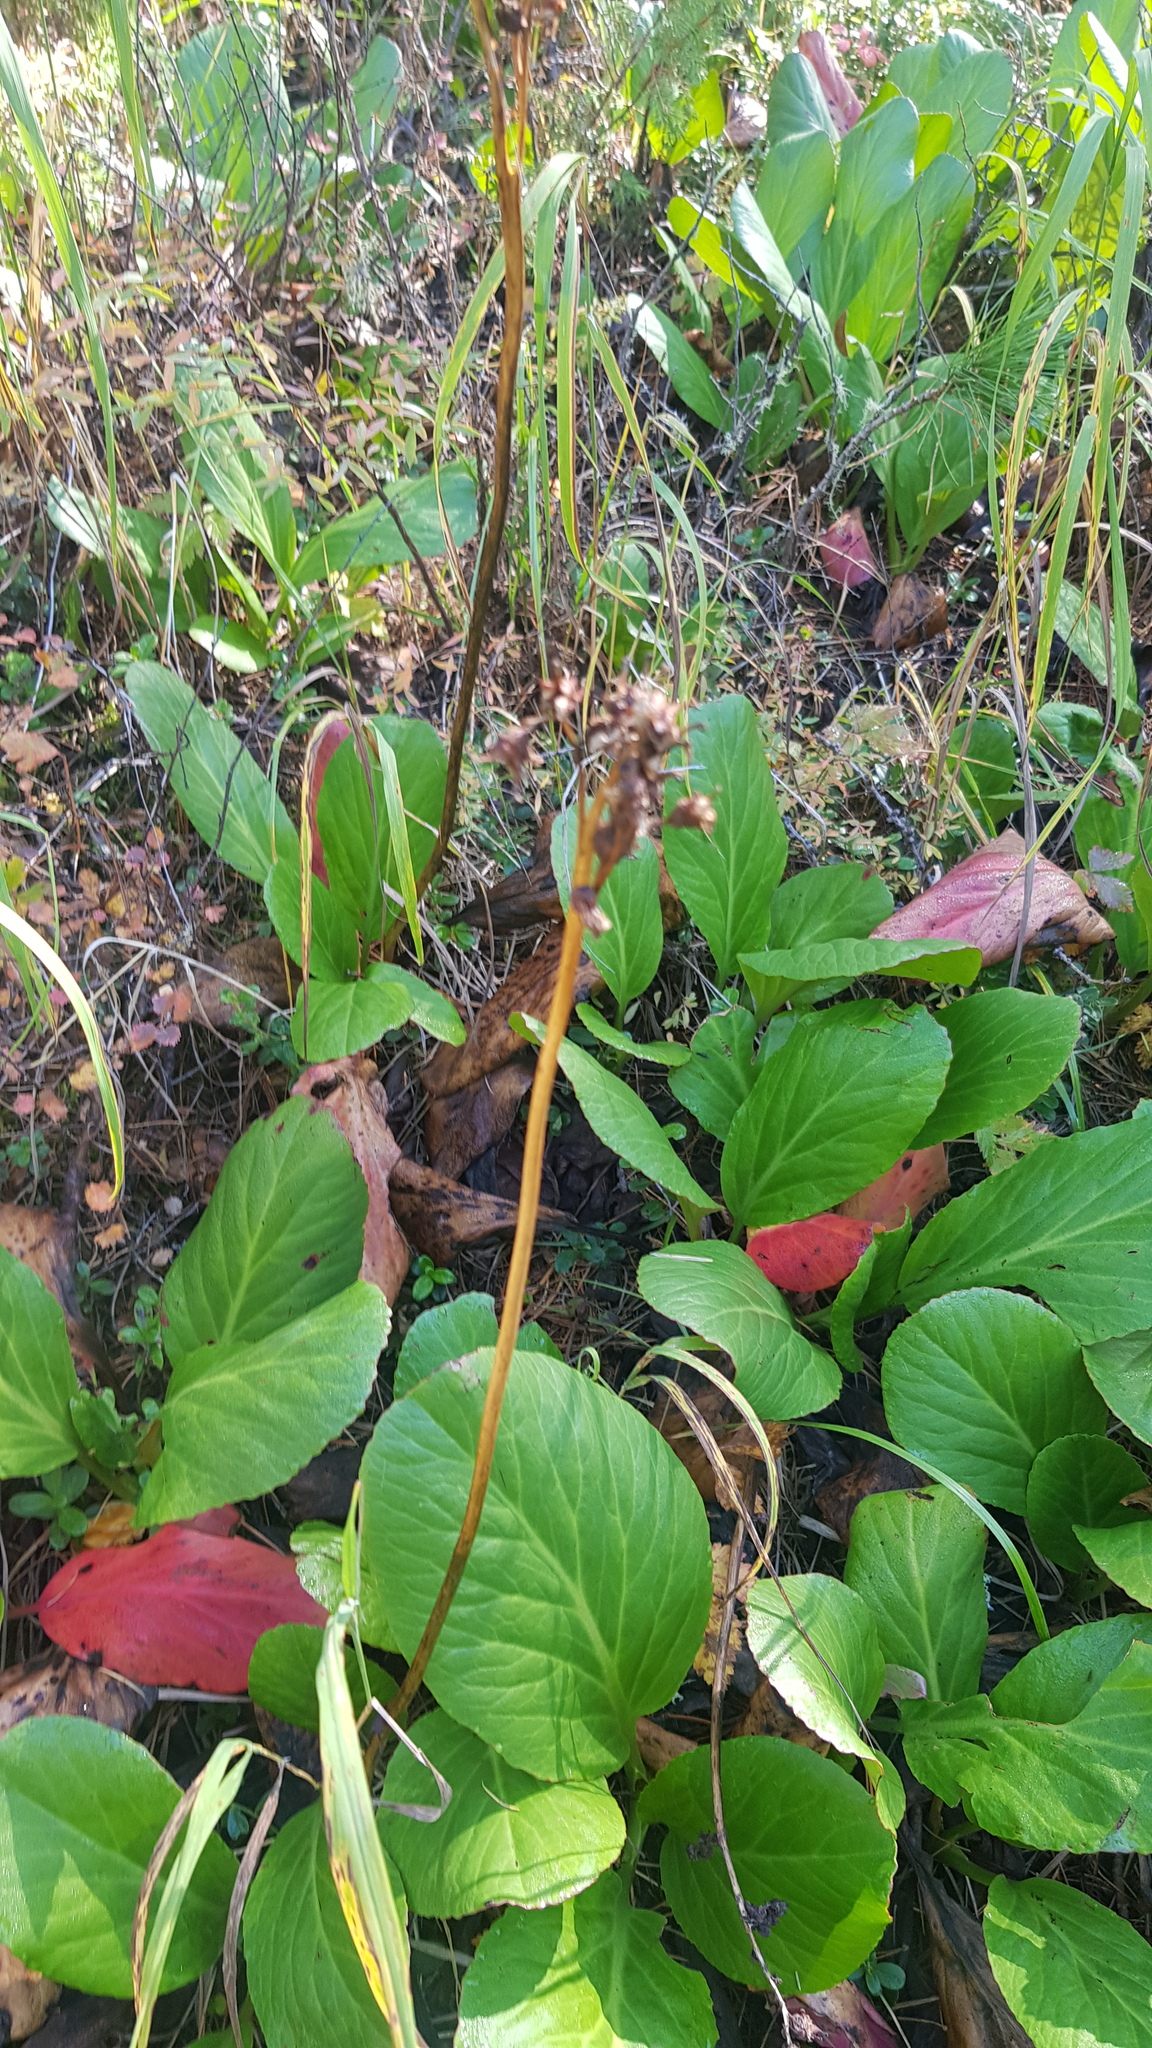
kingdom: Plantae
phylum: Tracheophyta
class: Magnoliopsida
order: Saxifragales
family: Saxifragaceae
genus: Bergenia
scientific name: Bergenia crassifolia
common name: Elephant-ears
